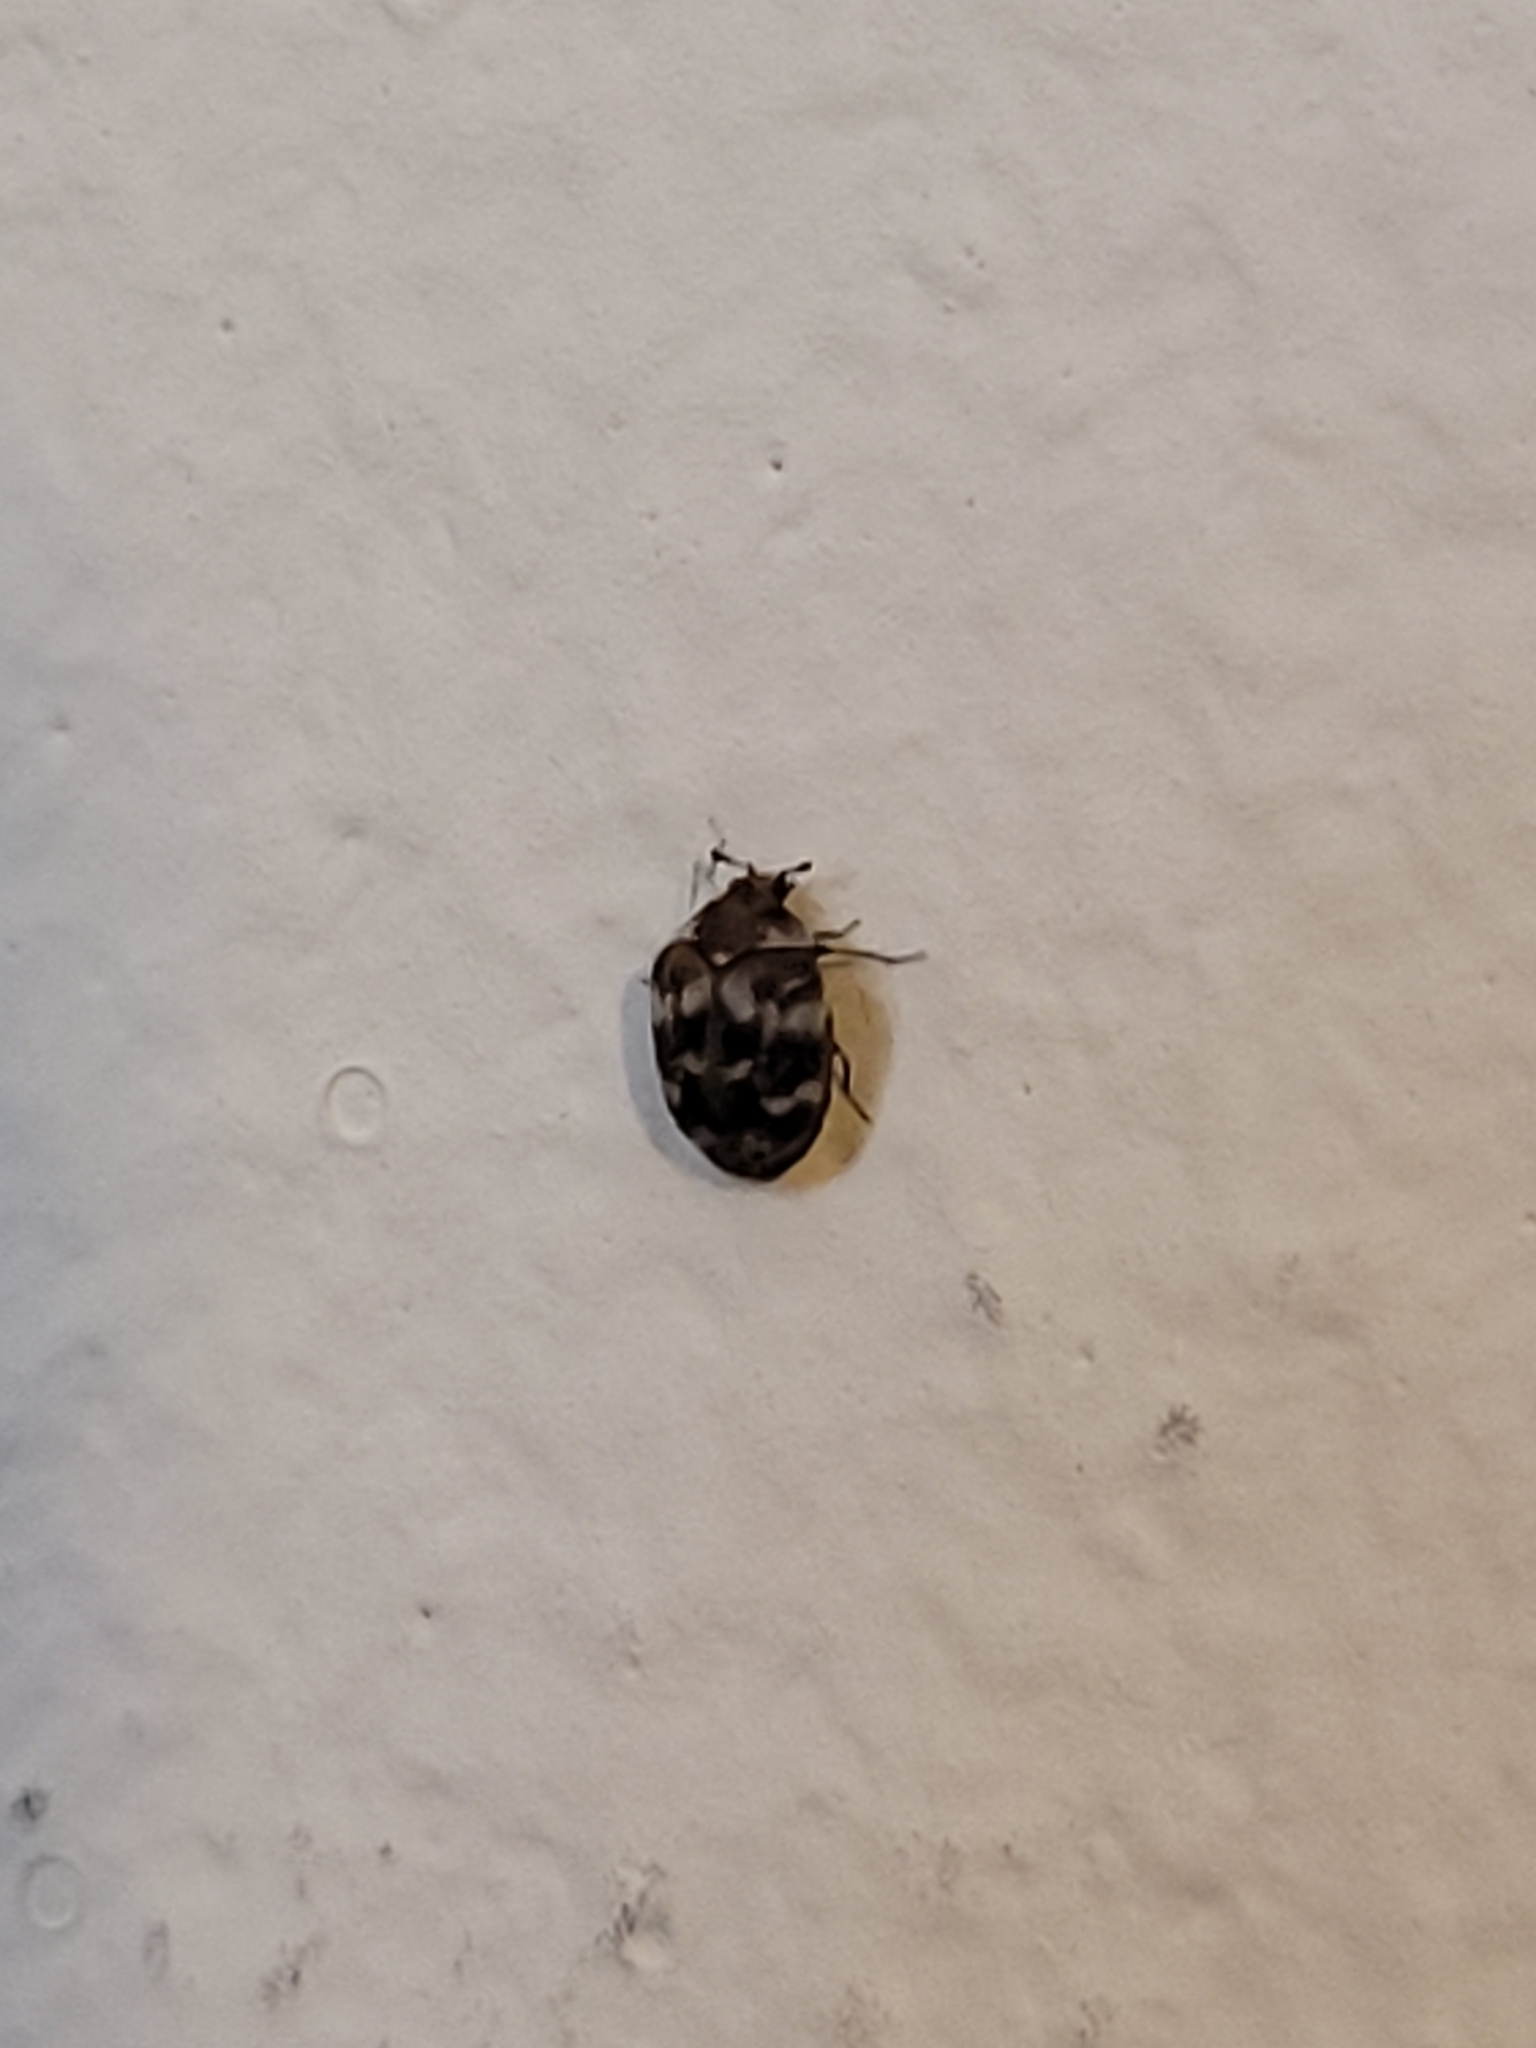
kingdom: Animalia
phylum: Arthropoda
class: Insecta
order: Coleoptera
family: Dermestidae
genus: Anthrenus
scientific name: Anthrenus verbasci
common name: Varied carpet beetle
